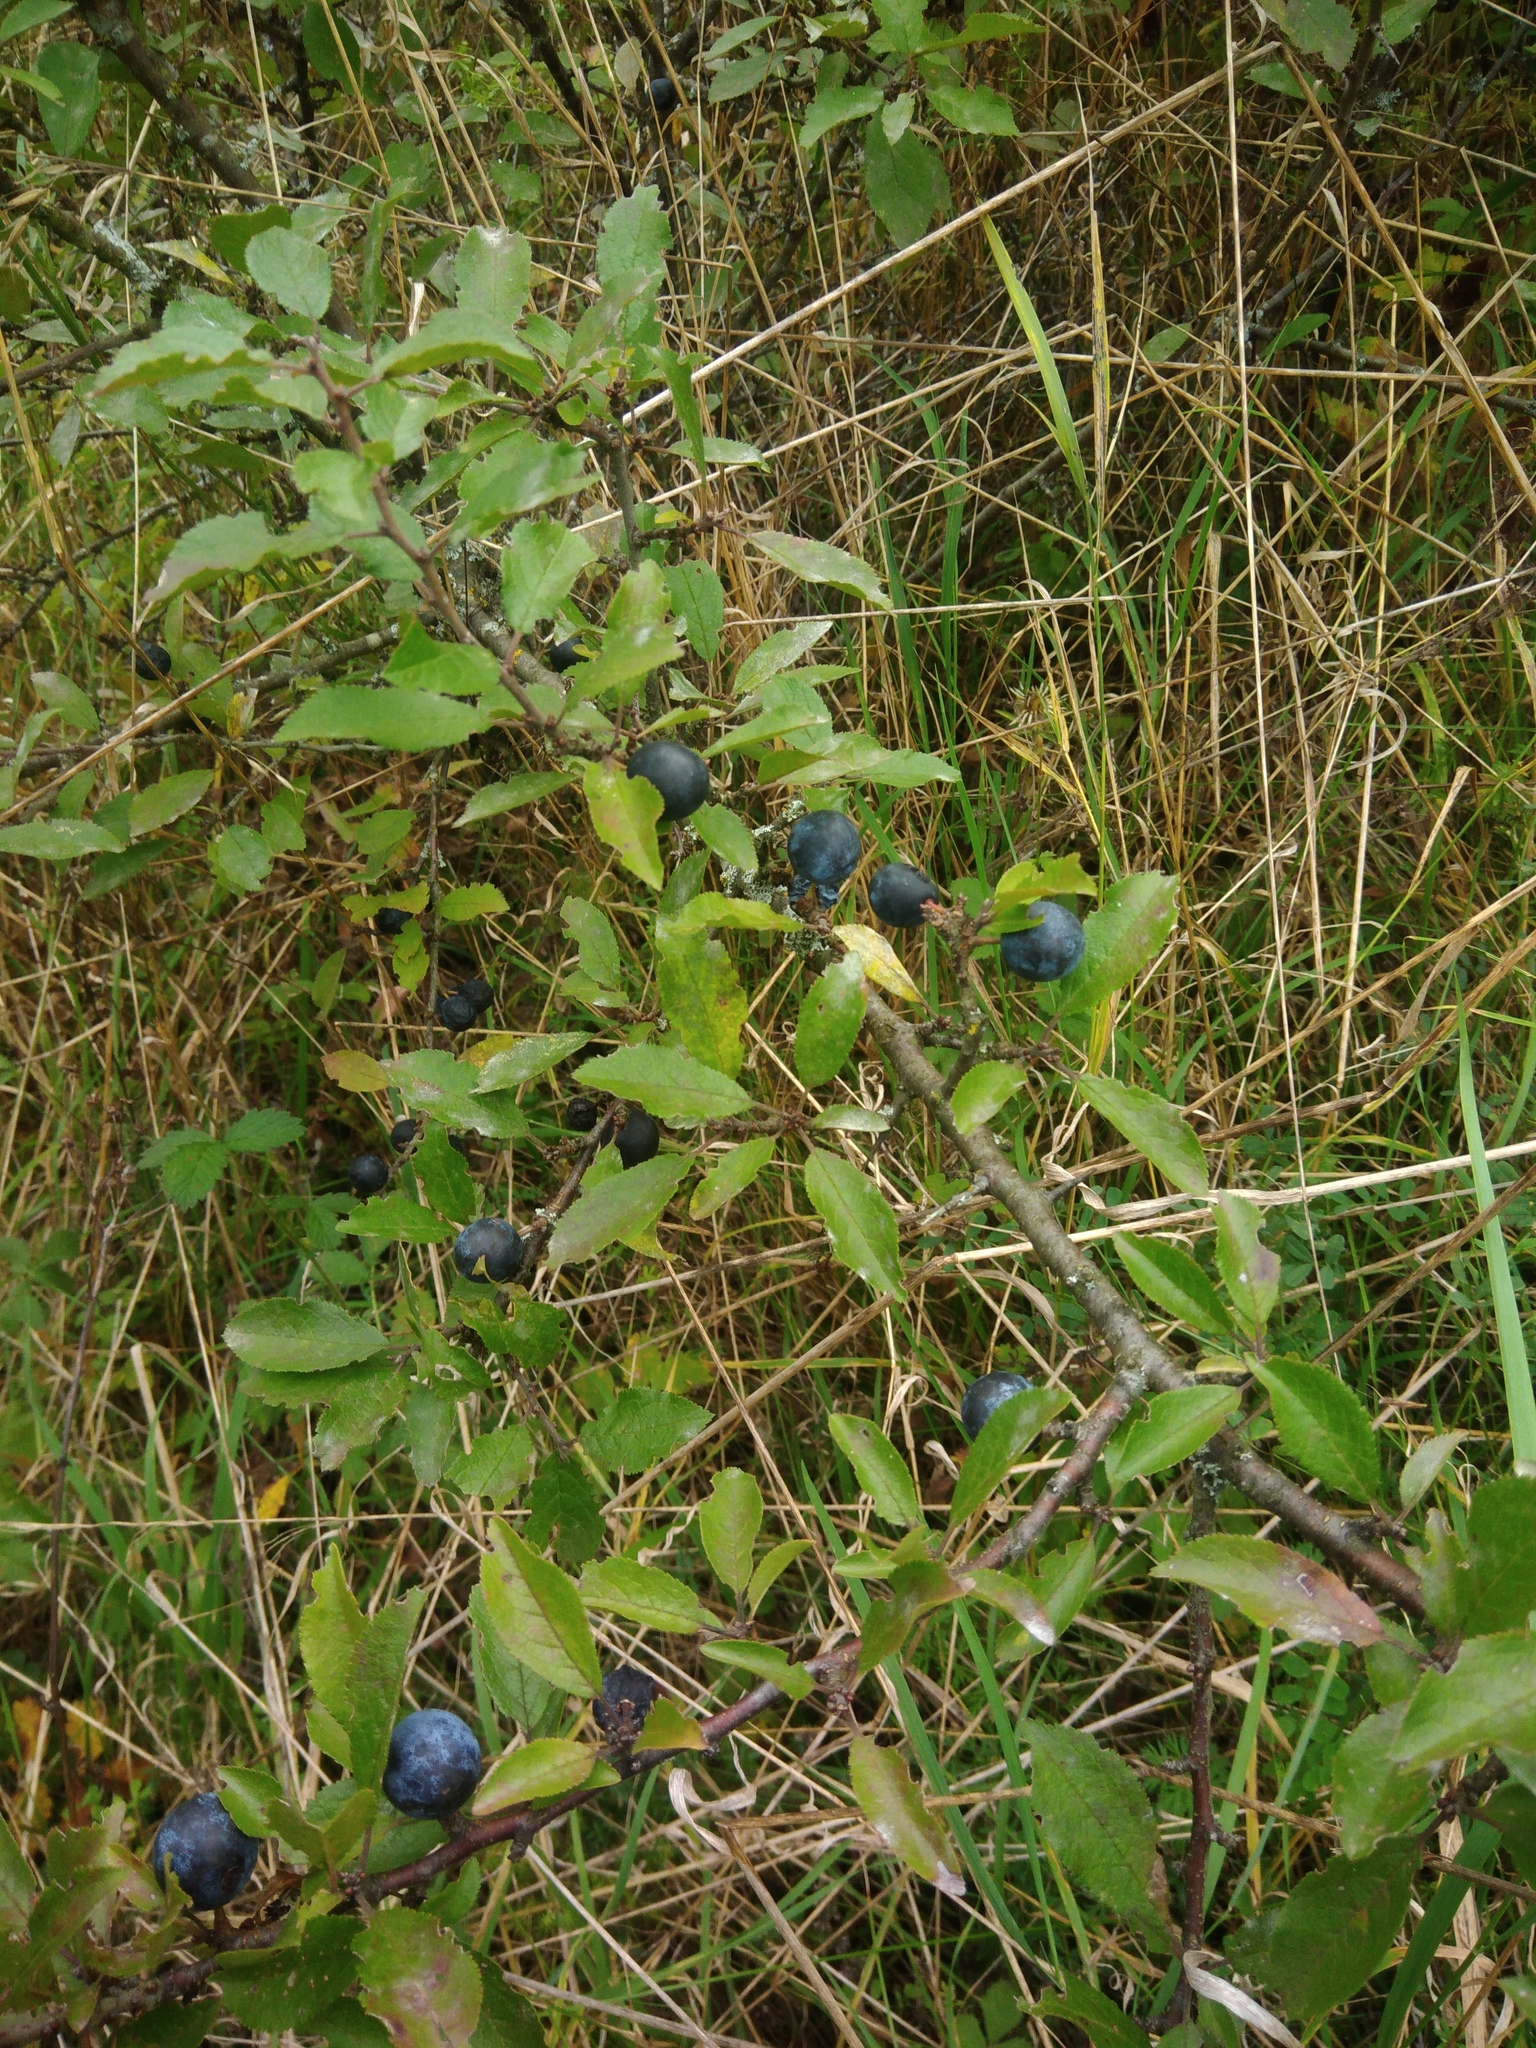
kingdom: Plantae
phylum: Tracheophyta
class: Magnoliopsida
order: Rosales
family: Rosaceae
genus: Prunus
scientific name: Prunus spinosa
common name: Blackthorn
